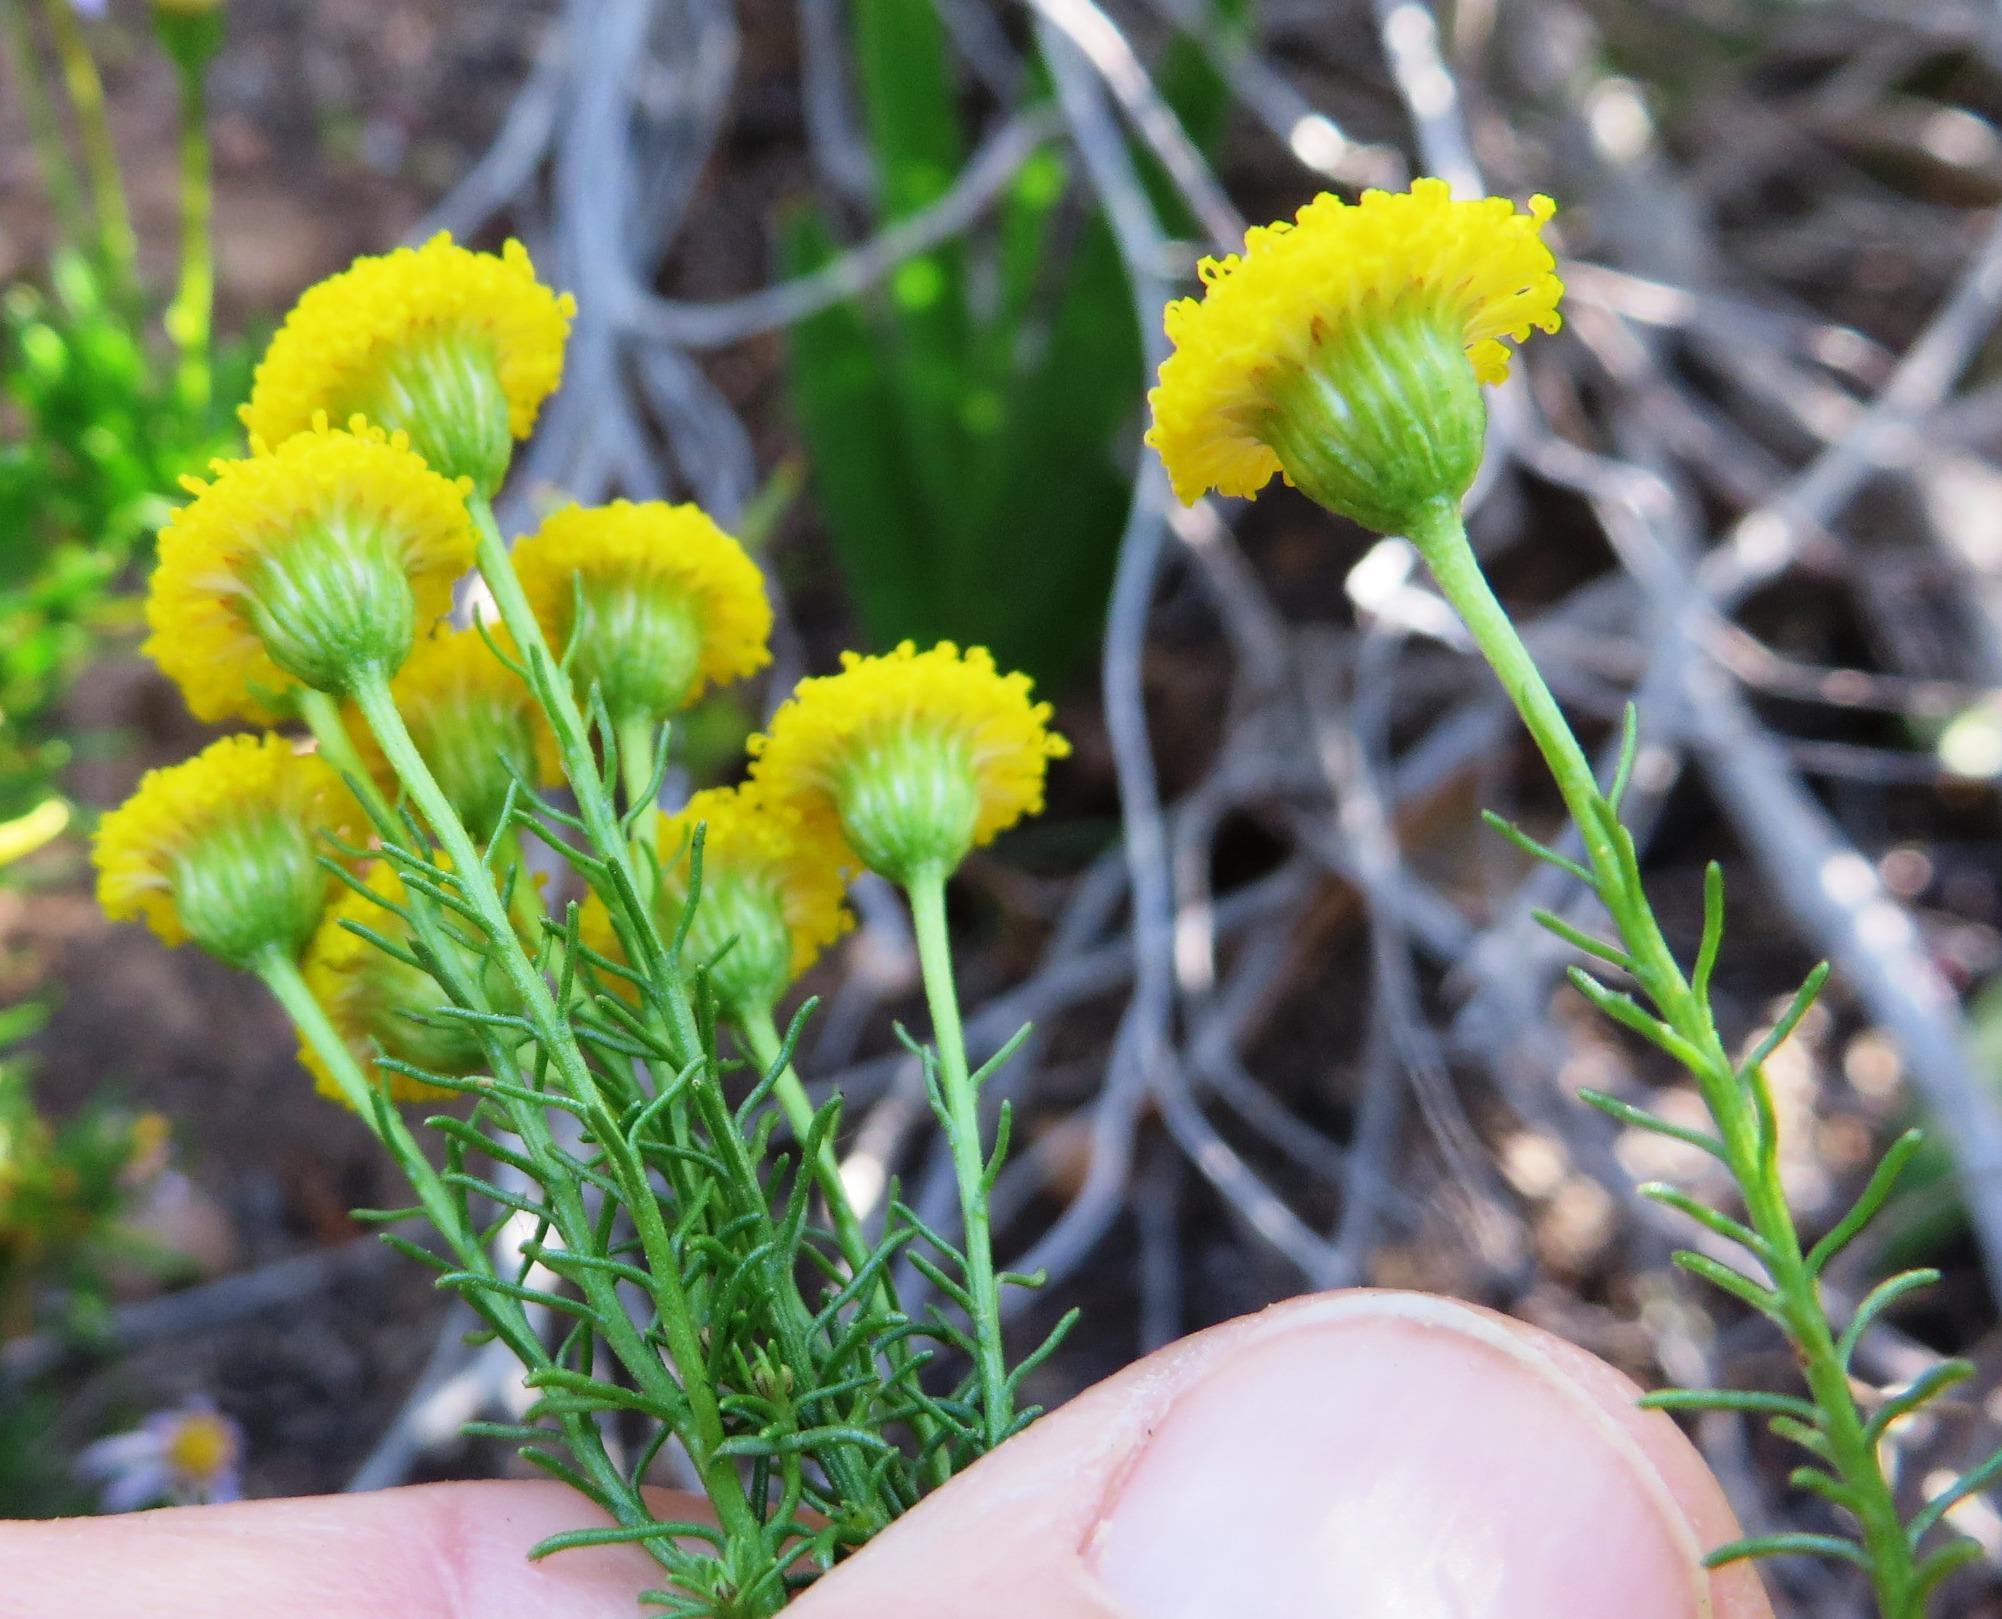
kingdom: Plantae
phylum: Tracheophyta
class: Magnoliopsida
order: Asterales
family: Asteraceae
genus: Chrysocoma
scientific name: Chrysocoma ciliata
